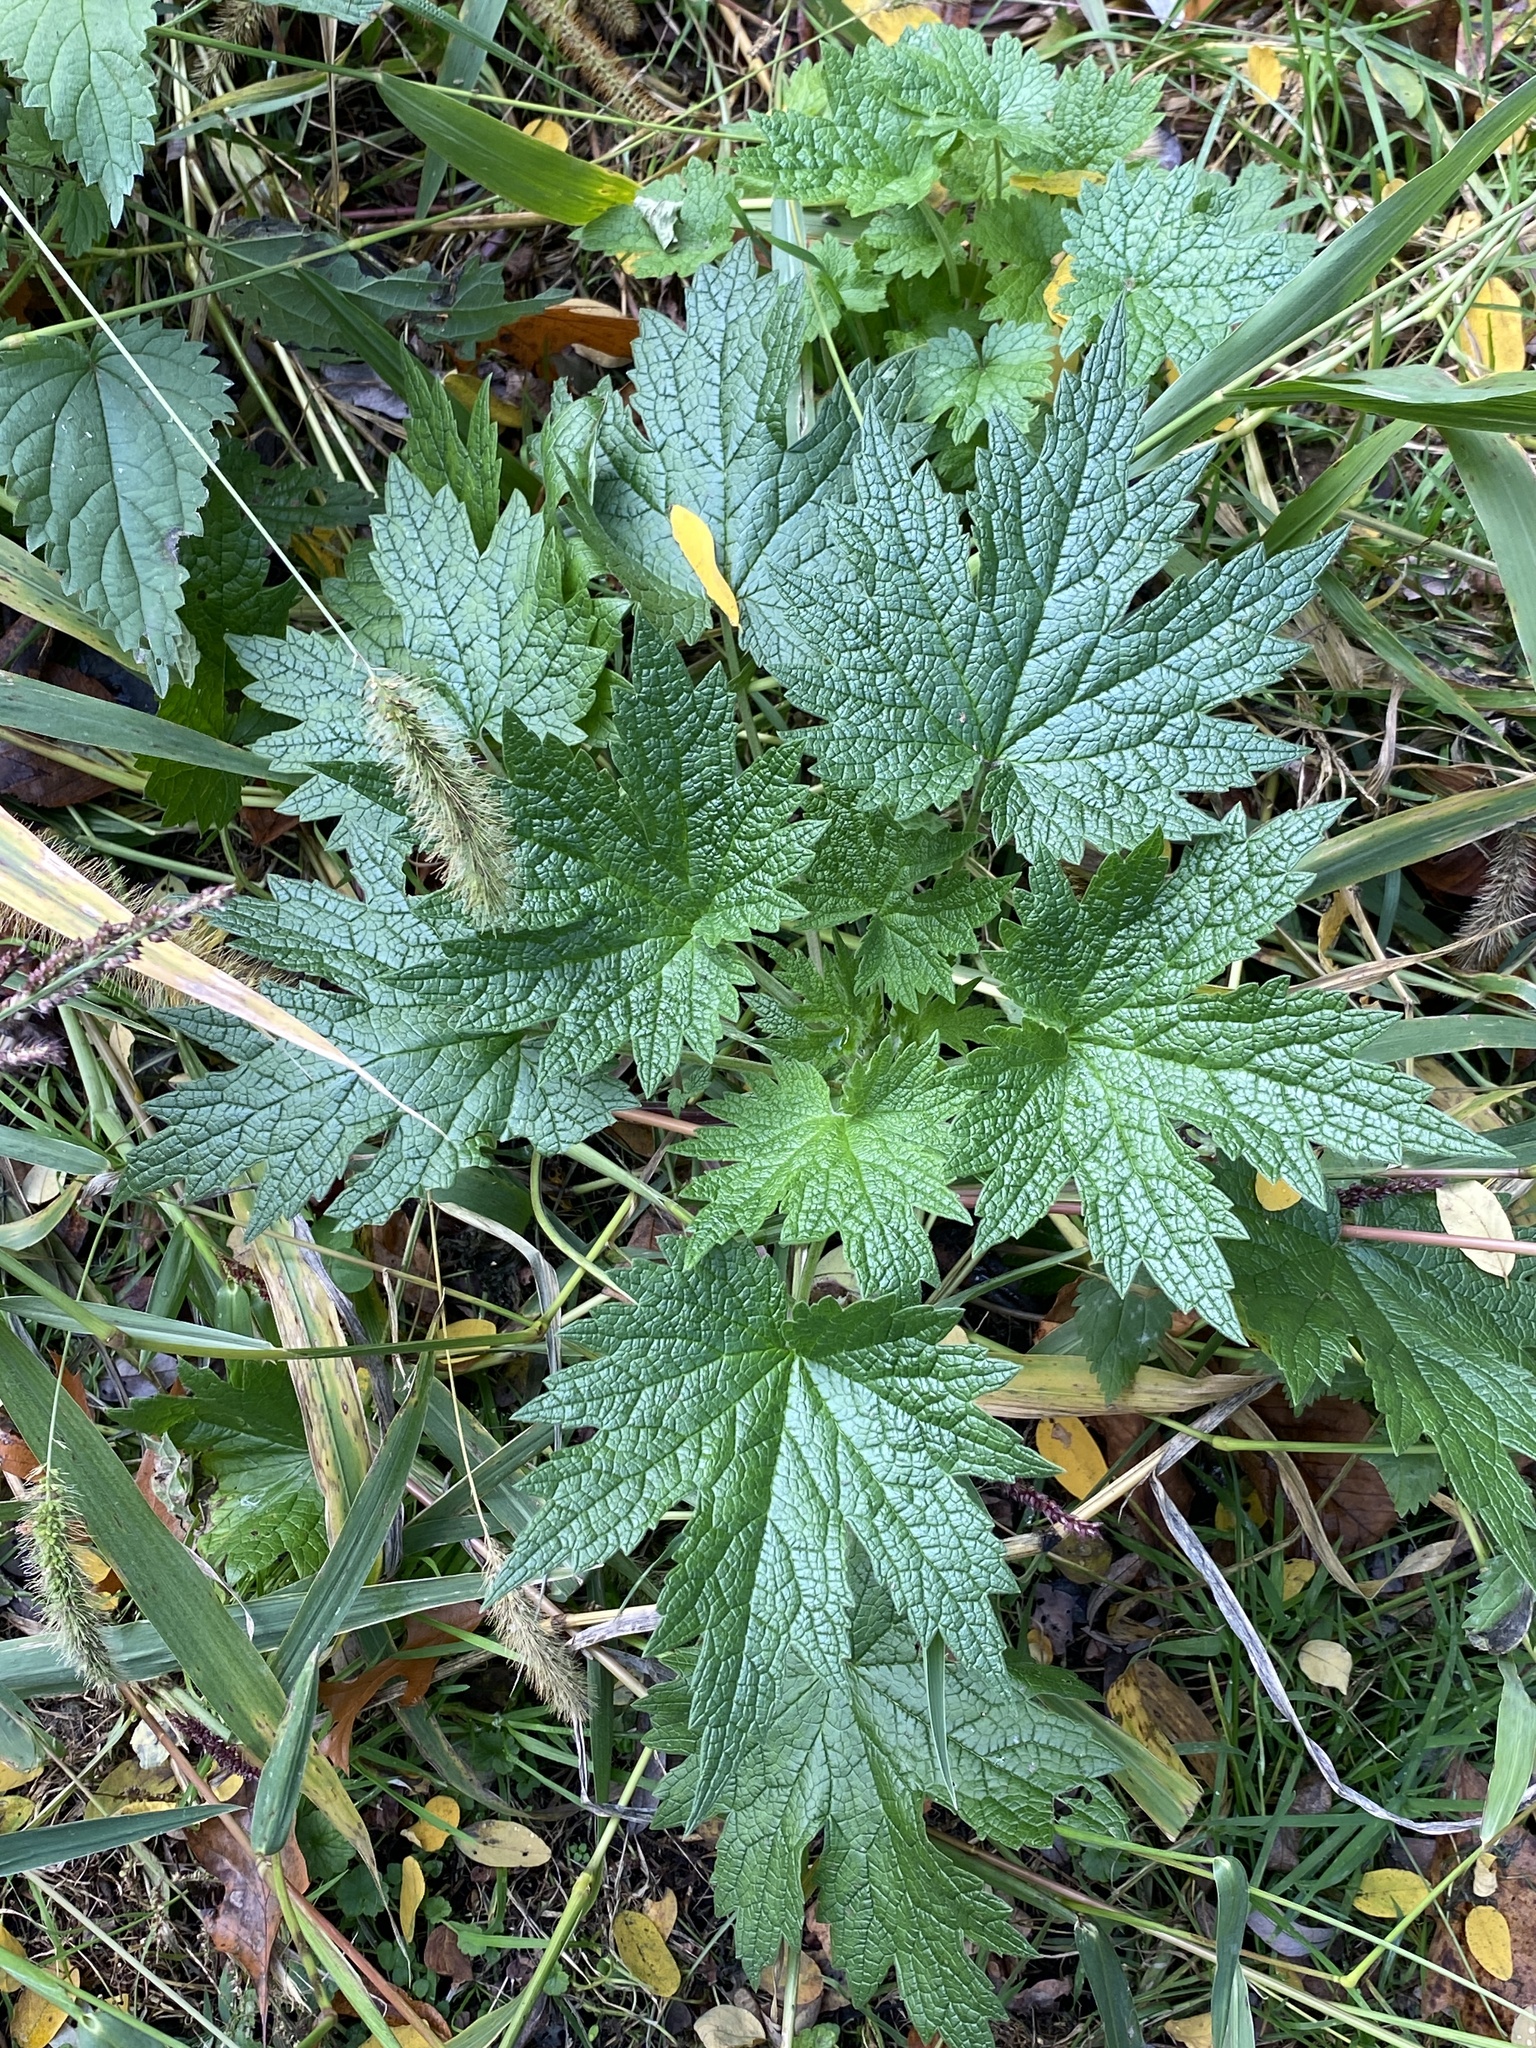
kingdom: Plantae
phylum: Tracheophyta
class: Magnoliopsida
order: Lamiales
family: Lamiaceae
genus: Leonurus
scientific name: Leonurus cardiaca
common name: Motherwort
